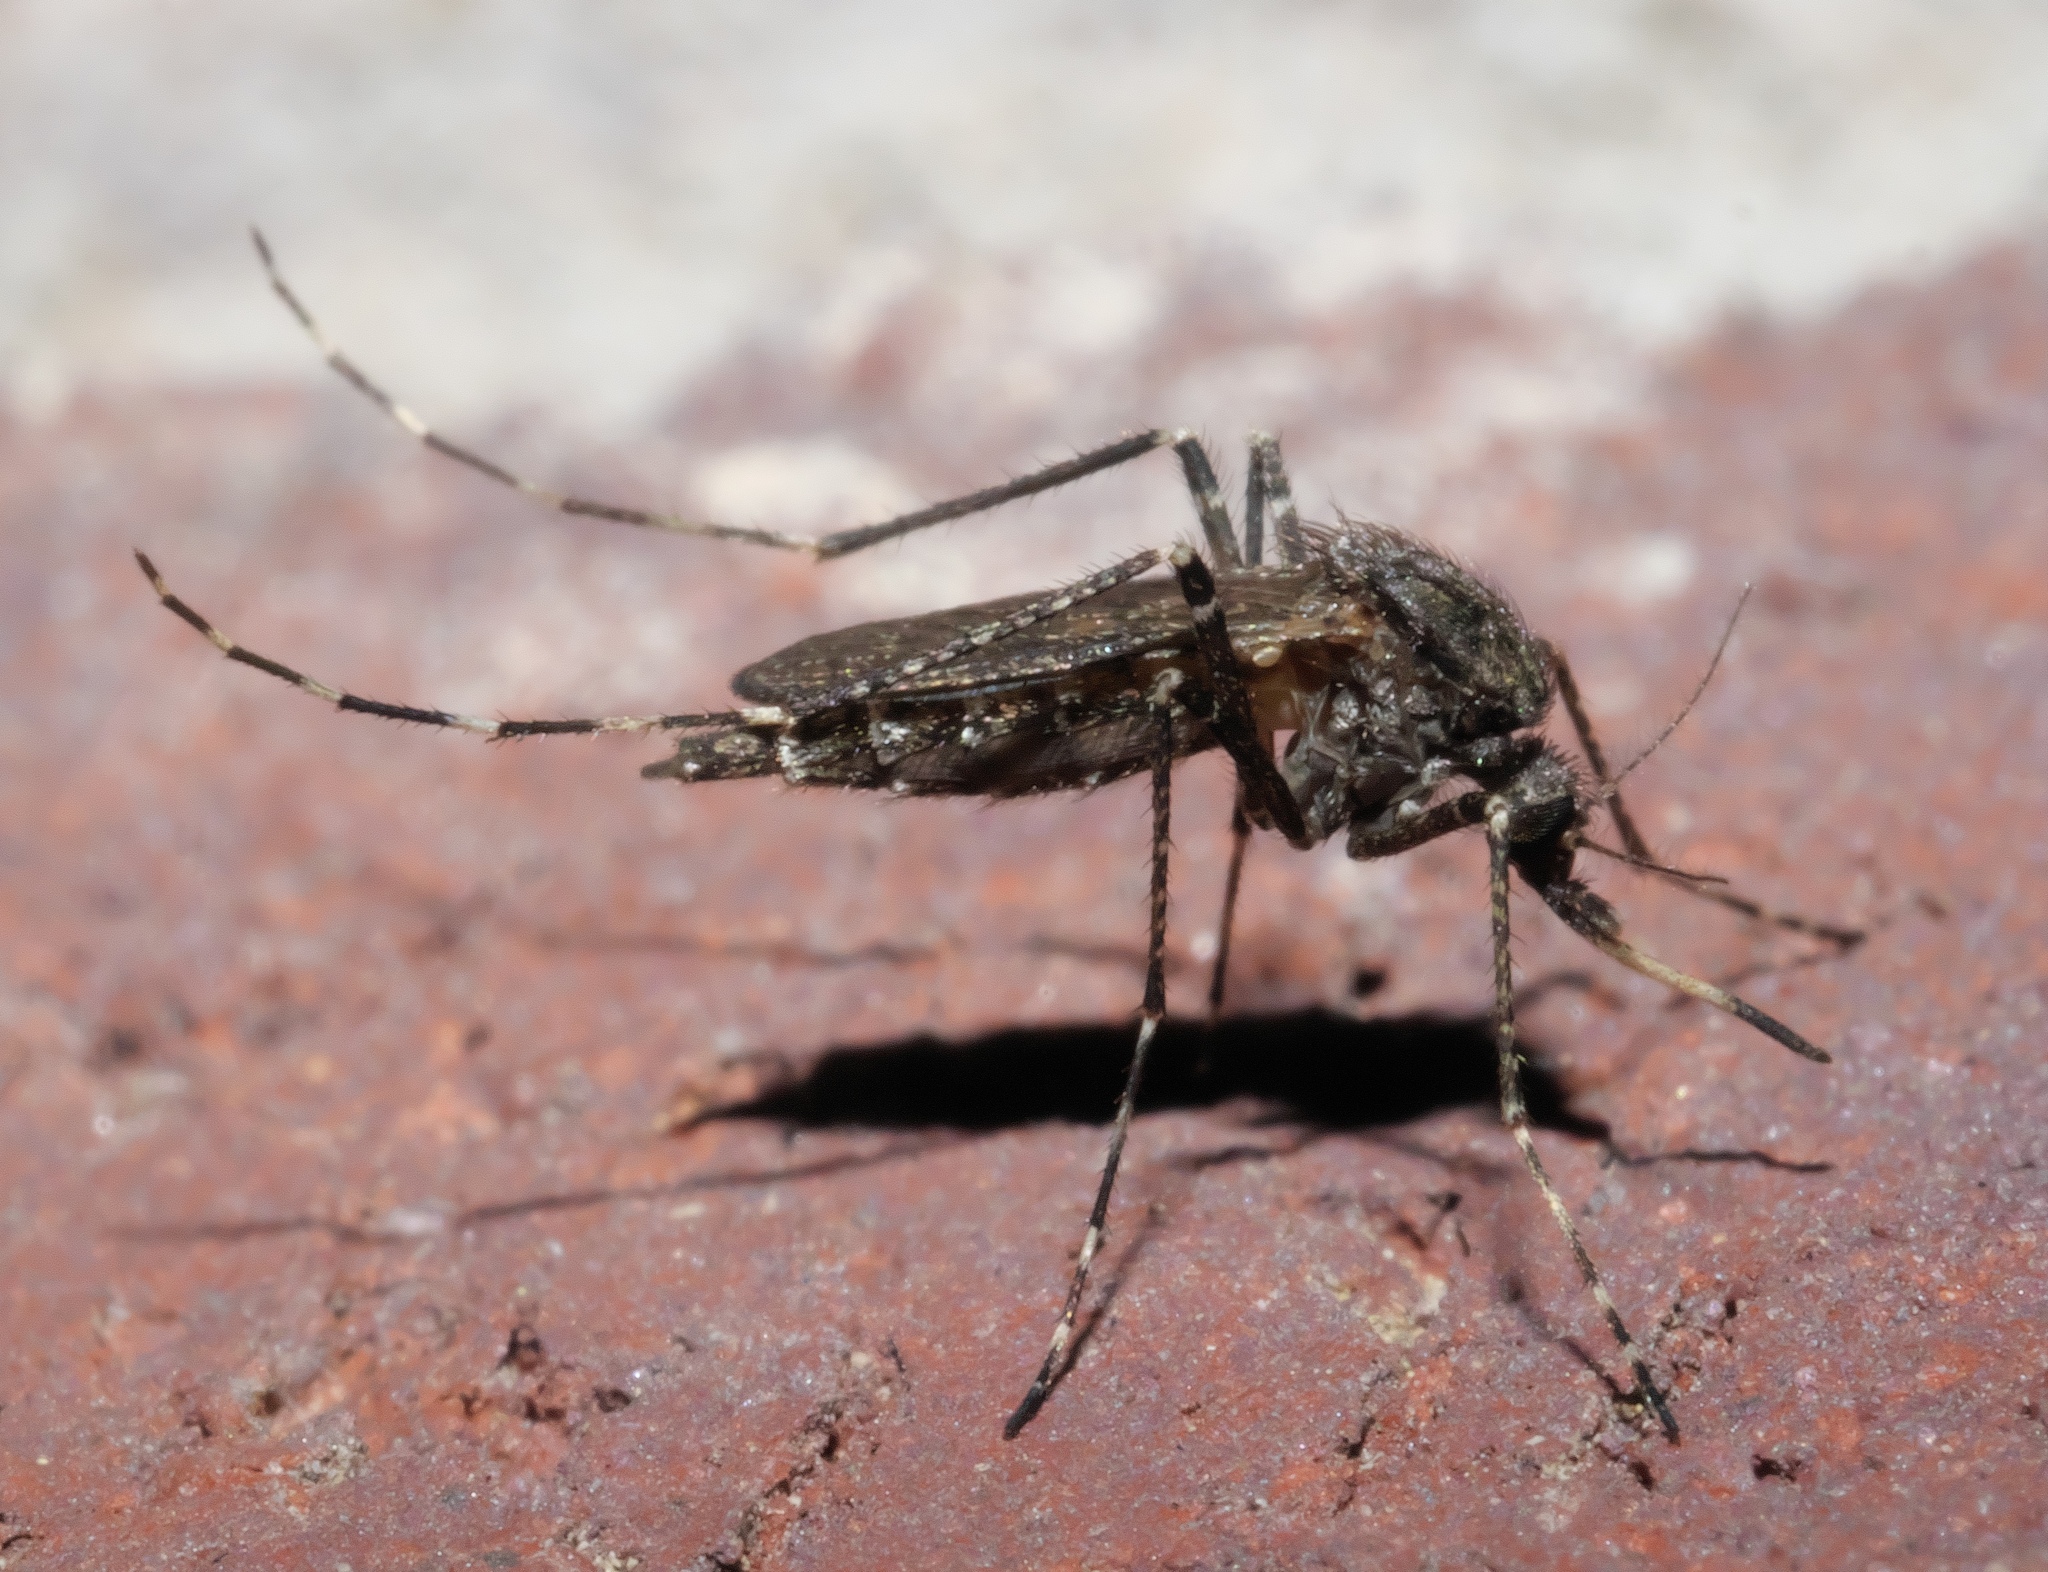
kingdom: Animalia
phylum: Arthropoda
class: Insecta
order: Diptera
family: Culicidae
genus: Psorophora
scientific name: Psorophora columbiae
